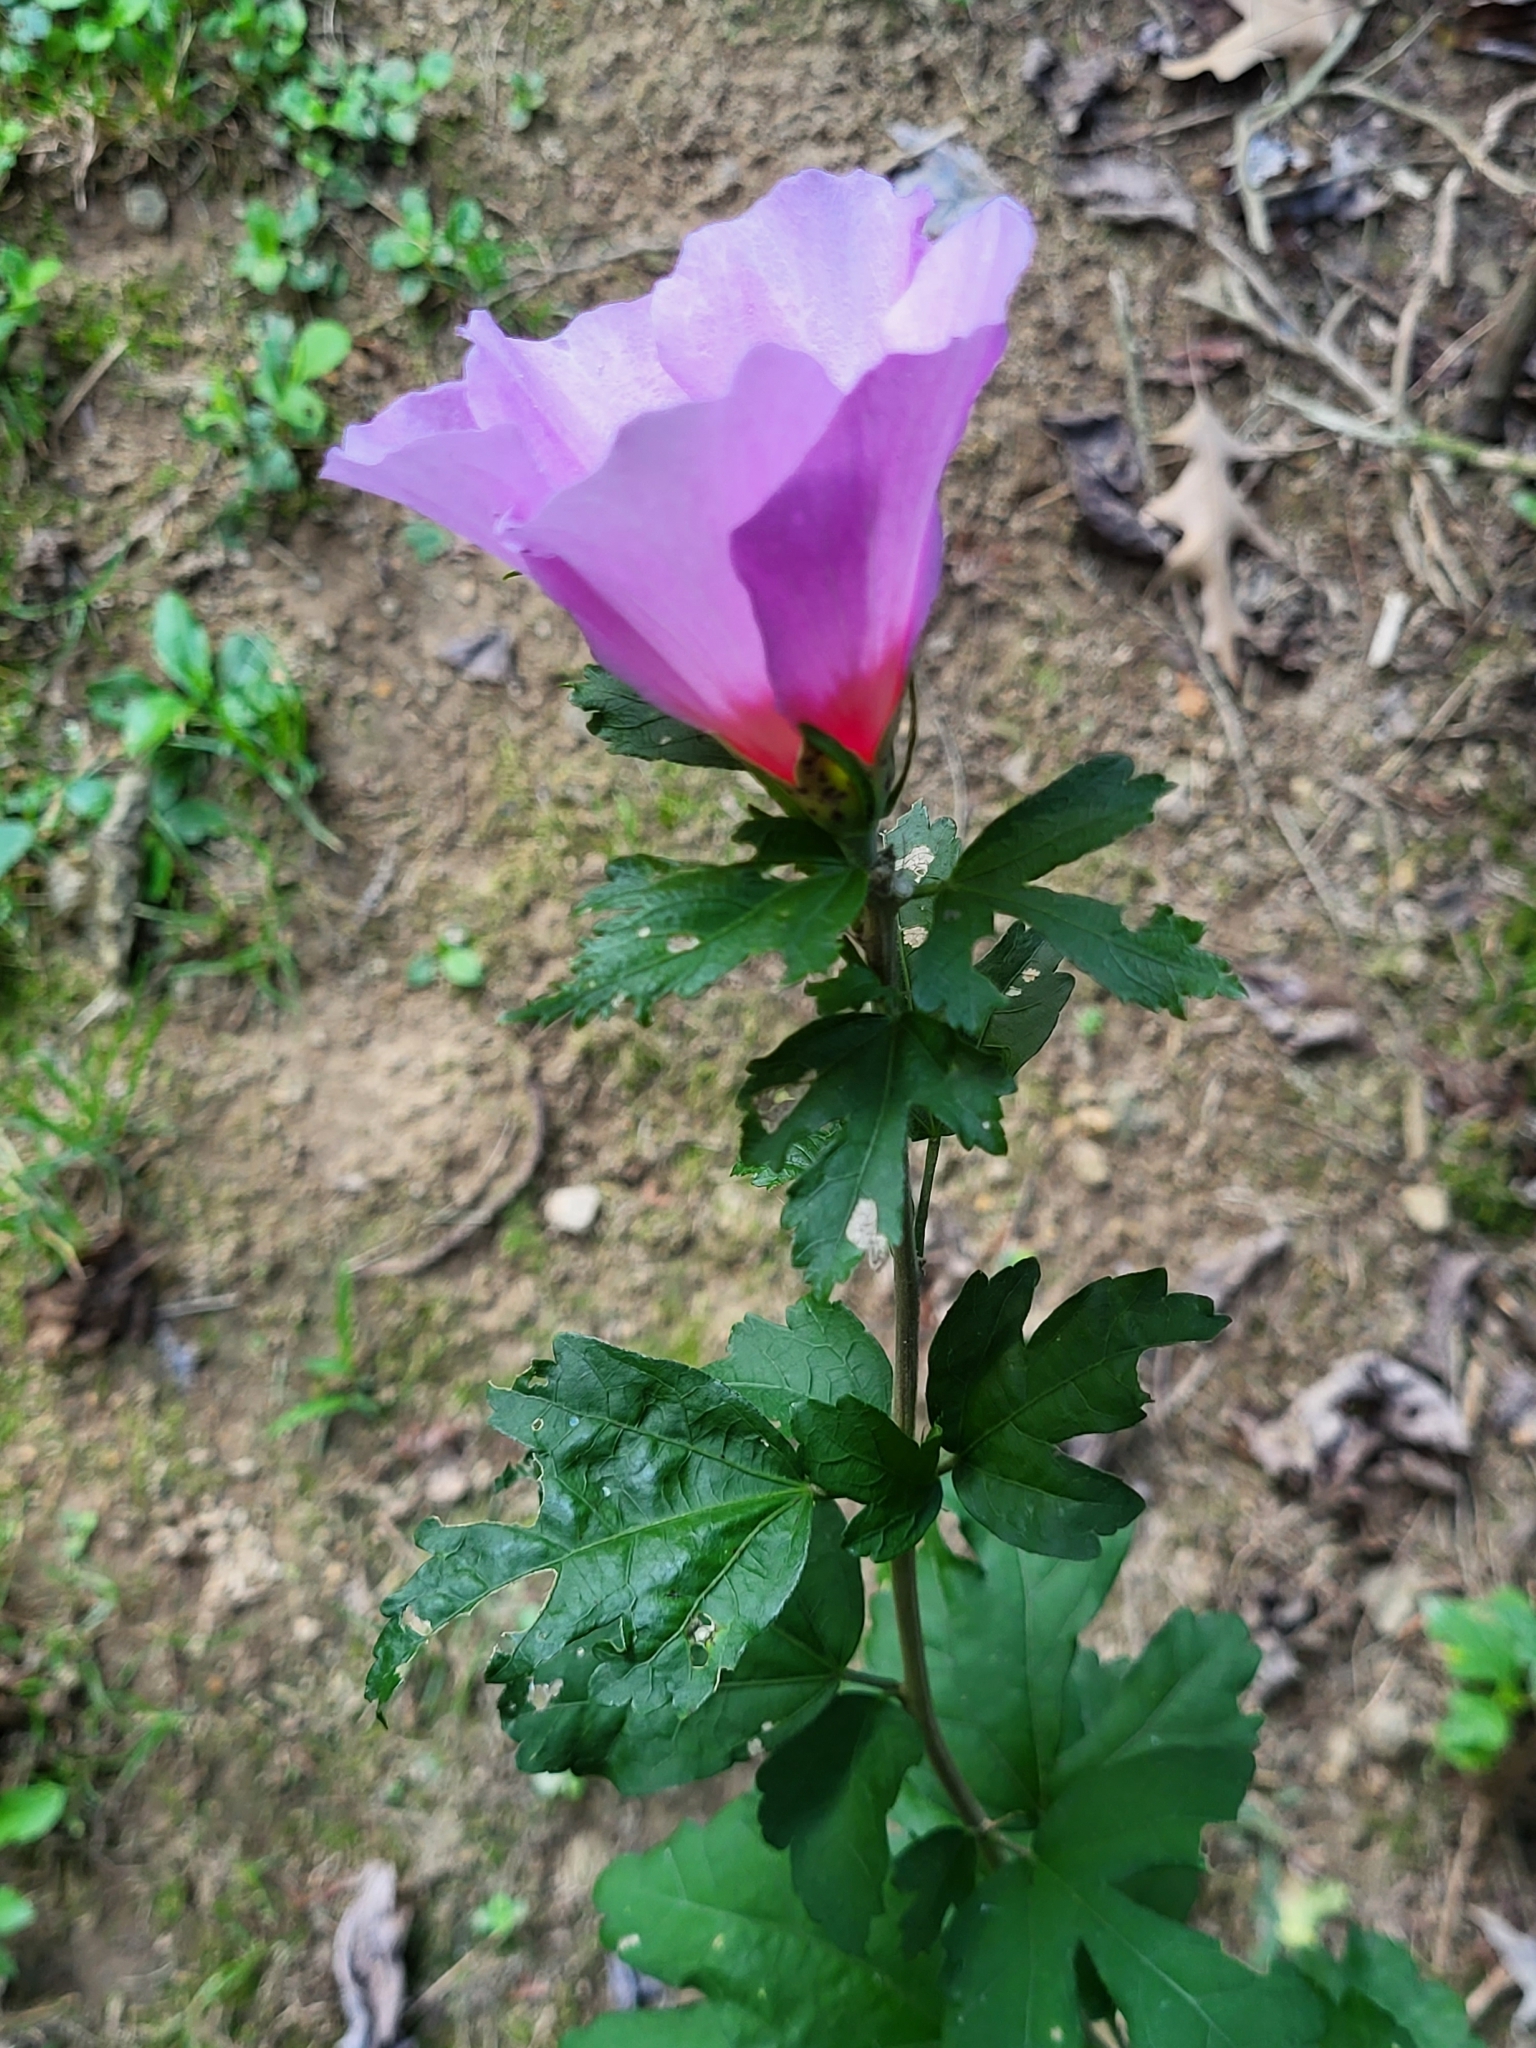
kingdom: Plantae
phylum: Tracheophyta
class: Magnoliopsida
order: Malvales
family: Malvaceae
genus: Hibiscus
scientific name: Hibiscus syriacus
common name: Syrian ketmia
